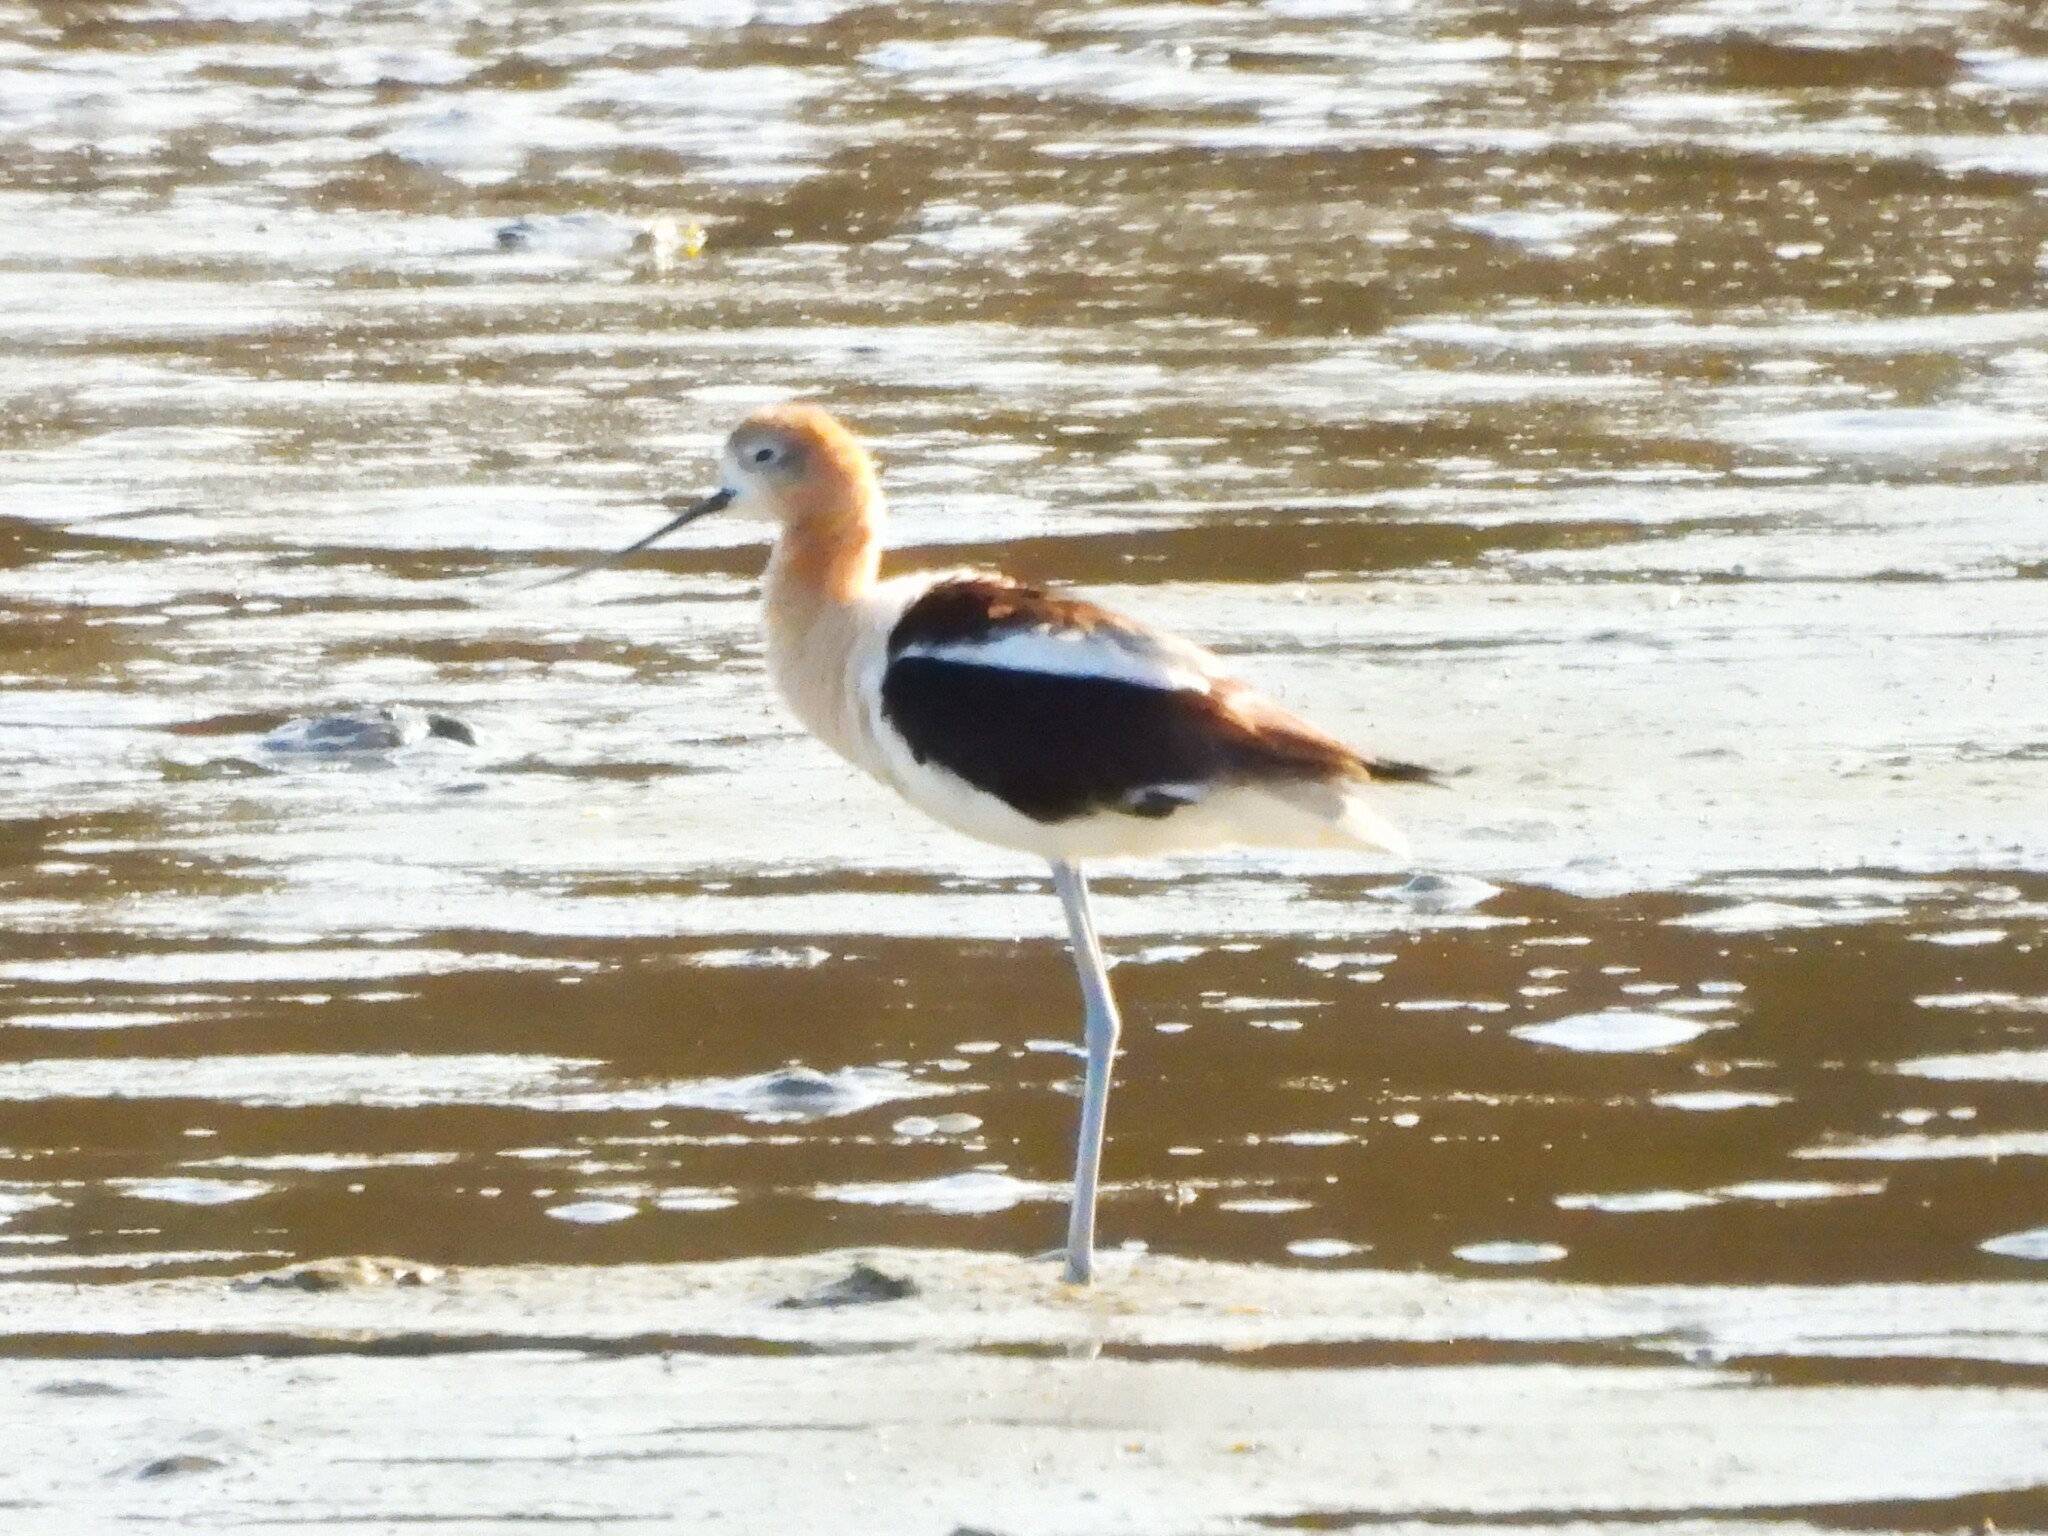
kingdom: Animalia
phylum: Chordata
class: Aves
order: Charadriiformes
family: Recurvirostridae
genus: Recurvirostra
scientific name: Recurvirostra americana
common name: American avocet
